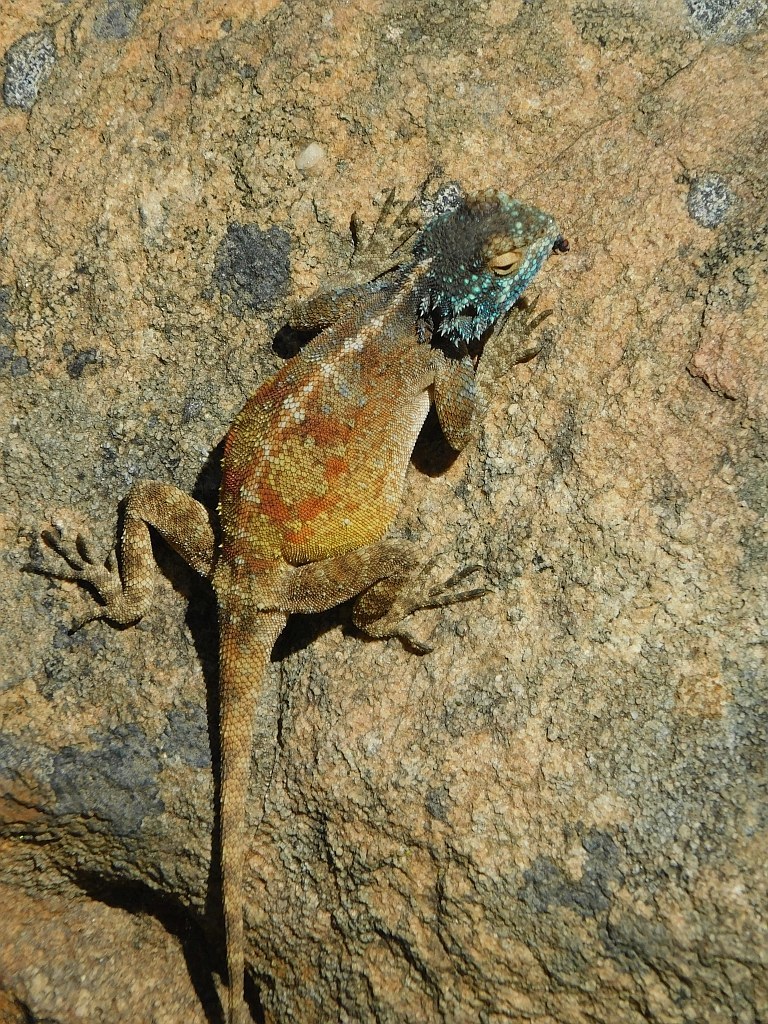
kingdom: Animalia
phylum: Chordata
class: Squamata
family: Agamidae
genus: Agama
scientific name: Agama atra
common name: Southern african rock agama
